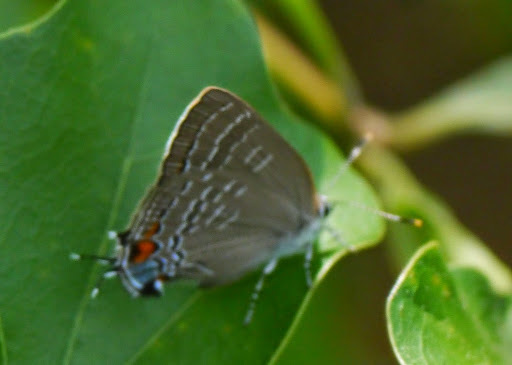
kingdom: Animalia
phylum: Arthropoda
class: Insecta
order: Lepidoptera
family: Lycaenidae
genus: Satyrium
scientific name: Satyrium calanus
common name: Banded hairstreak
